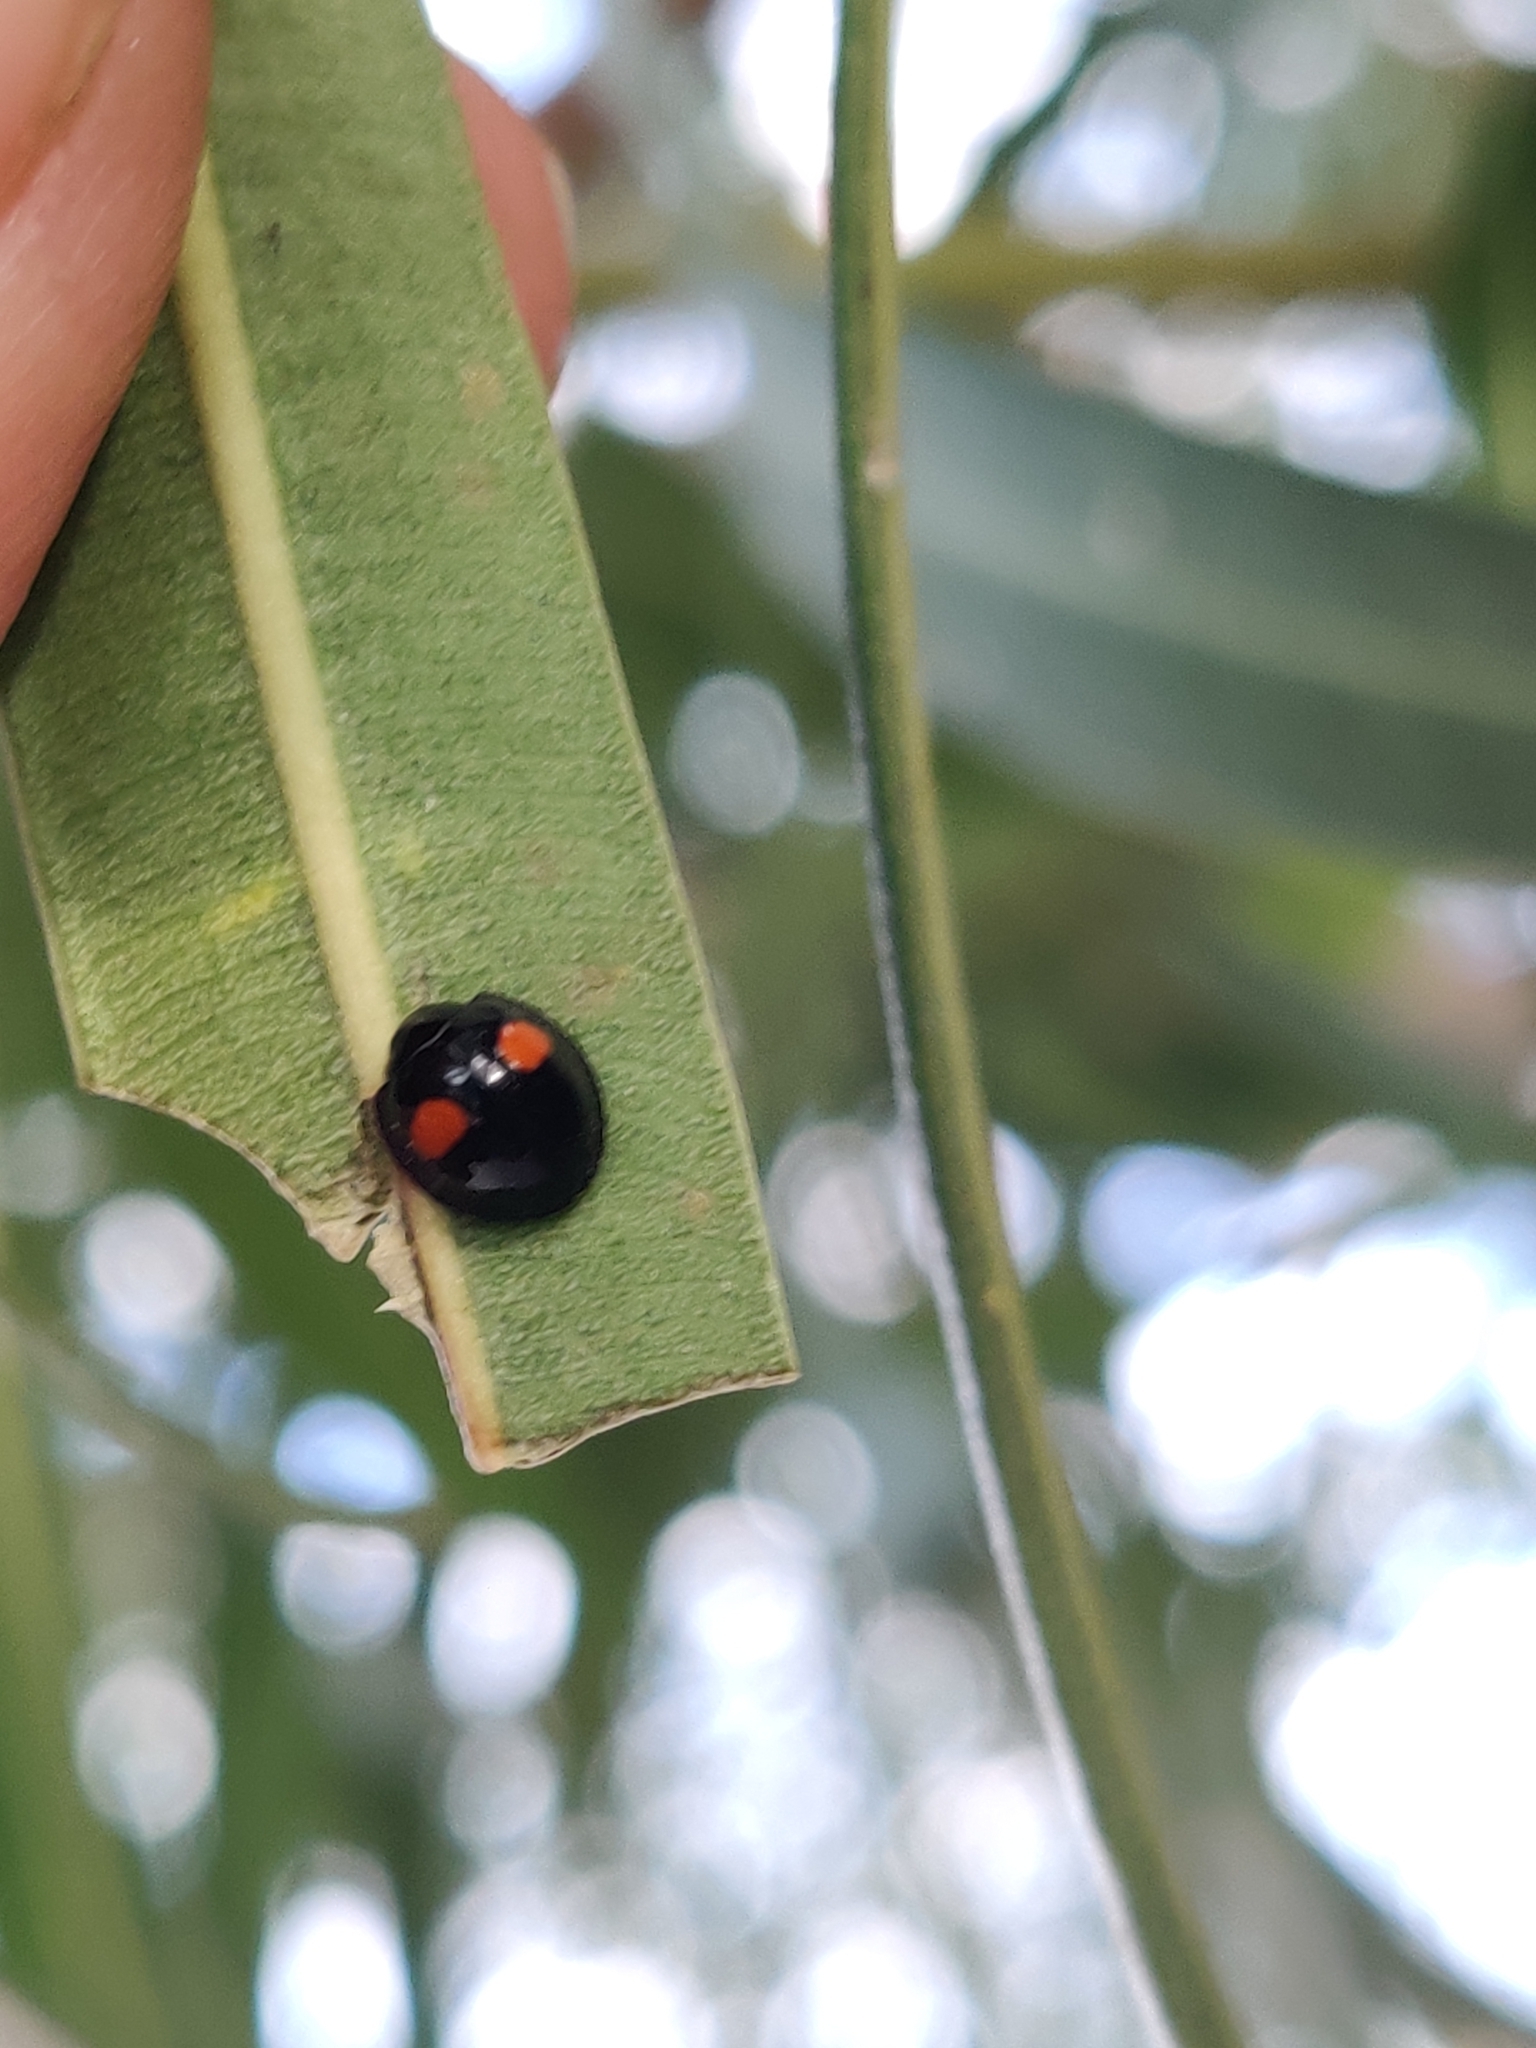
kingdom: Animalia
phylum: Arthropoda
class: Insecta
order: Coleoptera
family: Coccinellidae
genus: Chilocorus
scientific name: Chilocorus stigma
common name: Twicestabbed lady beetle
